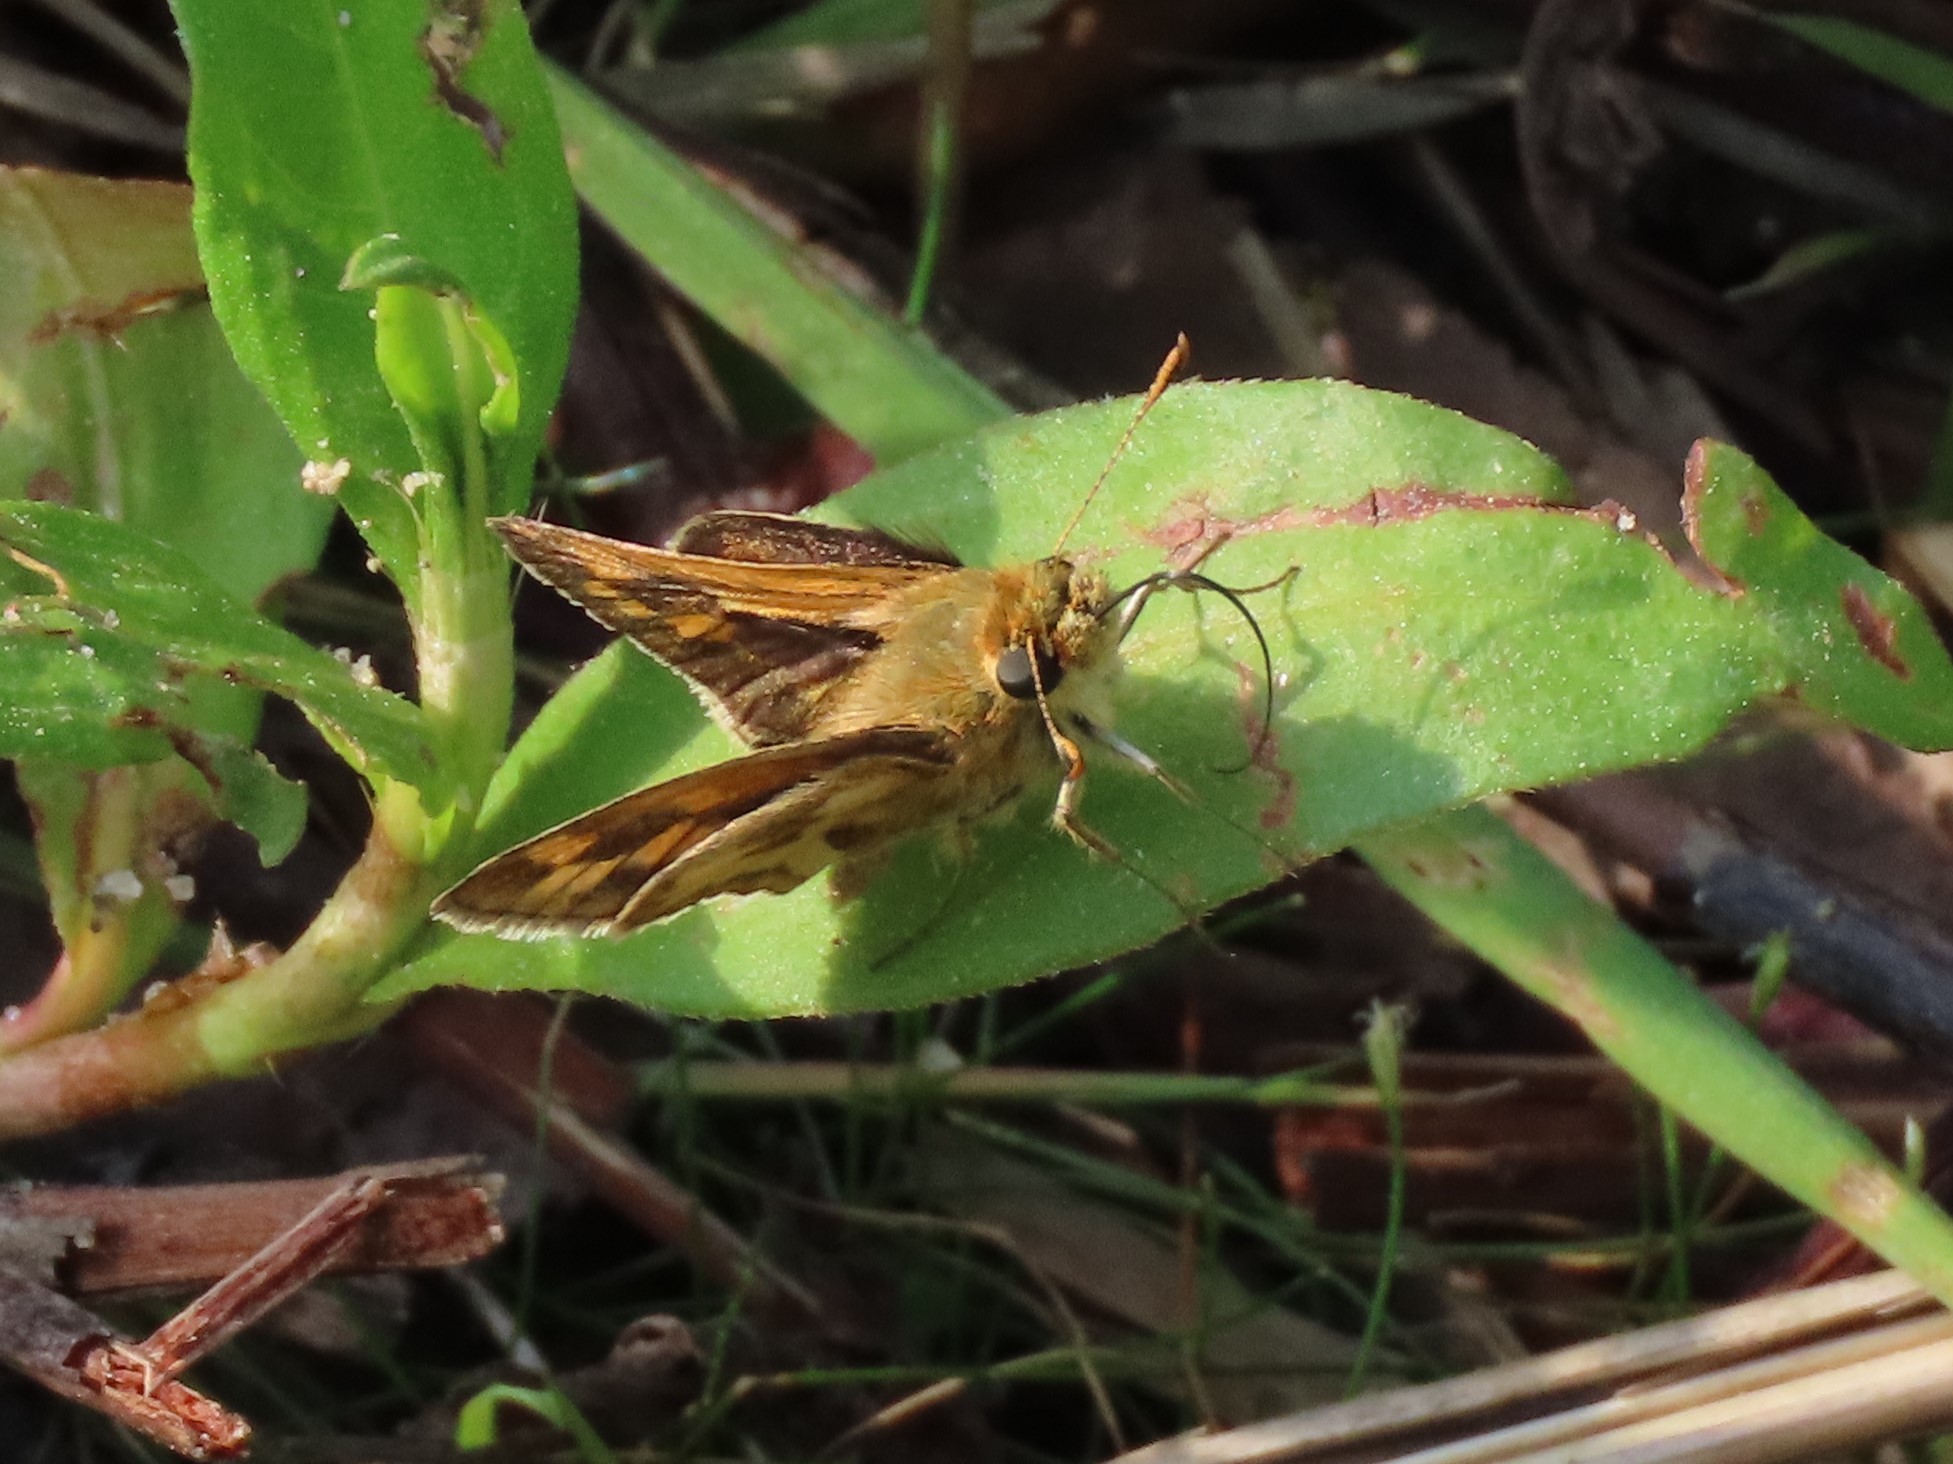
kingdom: Animalia
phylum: Arthropoda
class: Insecta
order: Lepidoptera
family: Hesperiidae
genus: Polites
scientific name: Polites coras
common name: Peck's skipper
